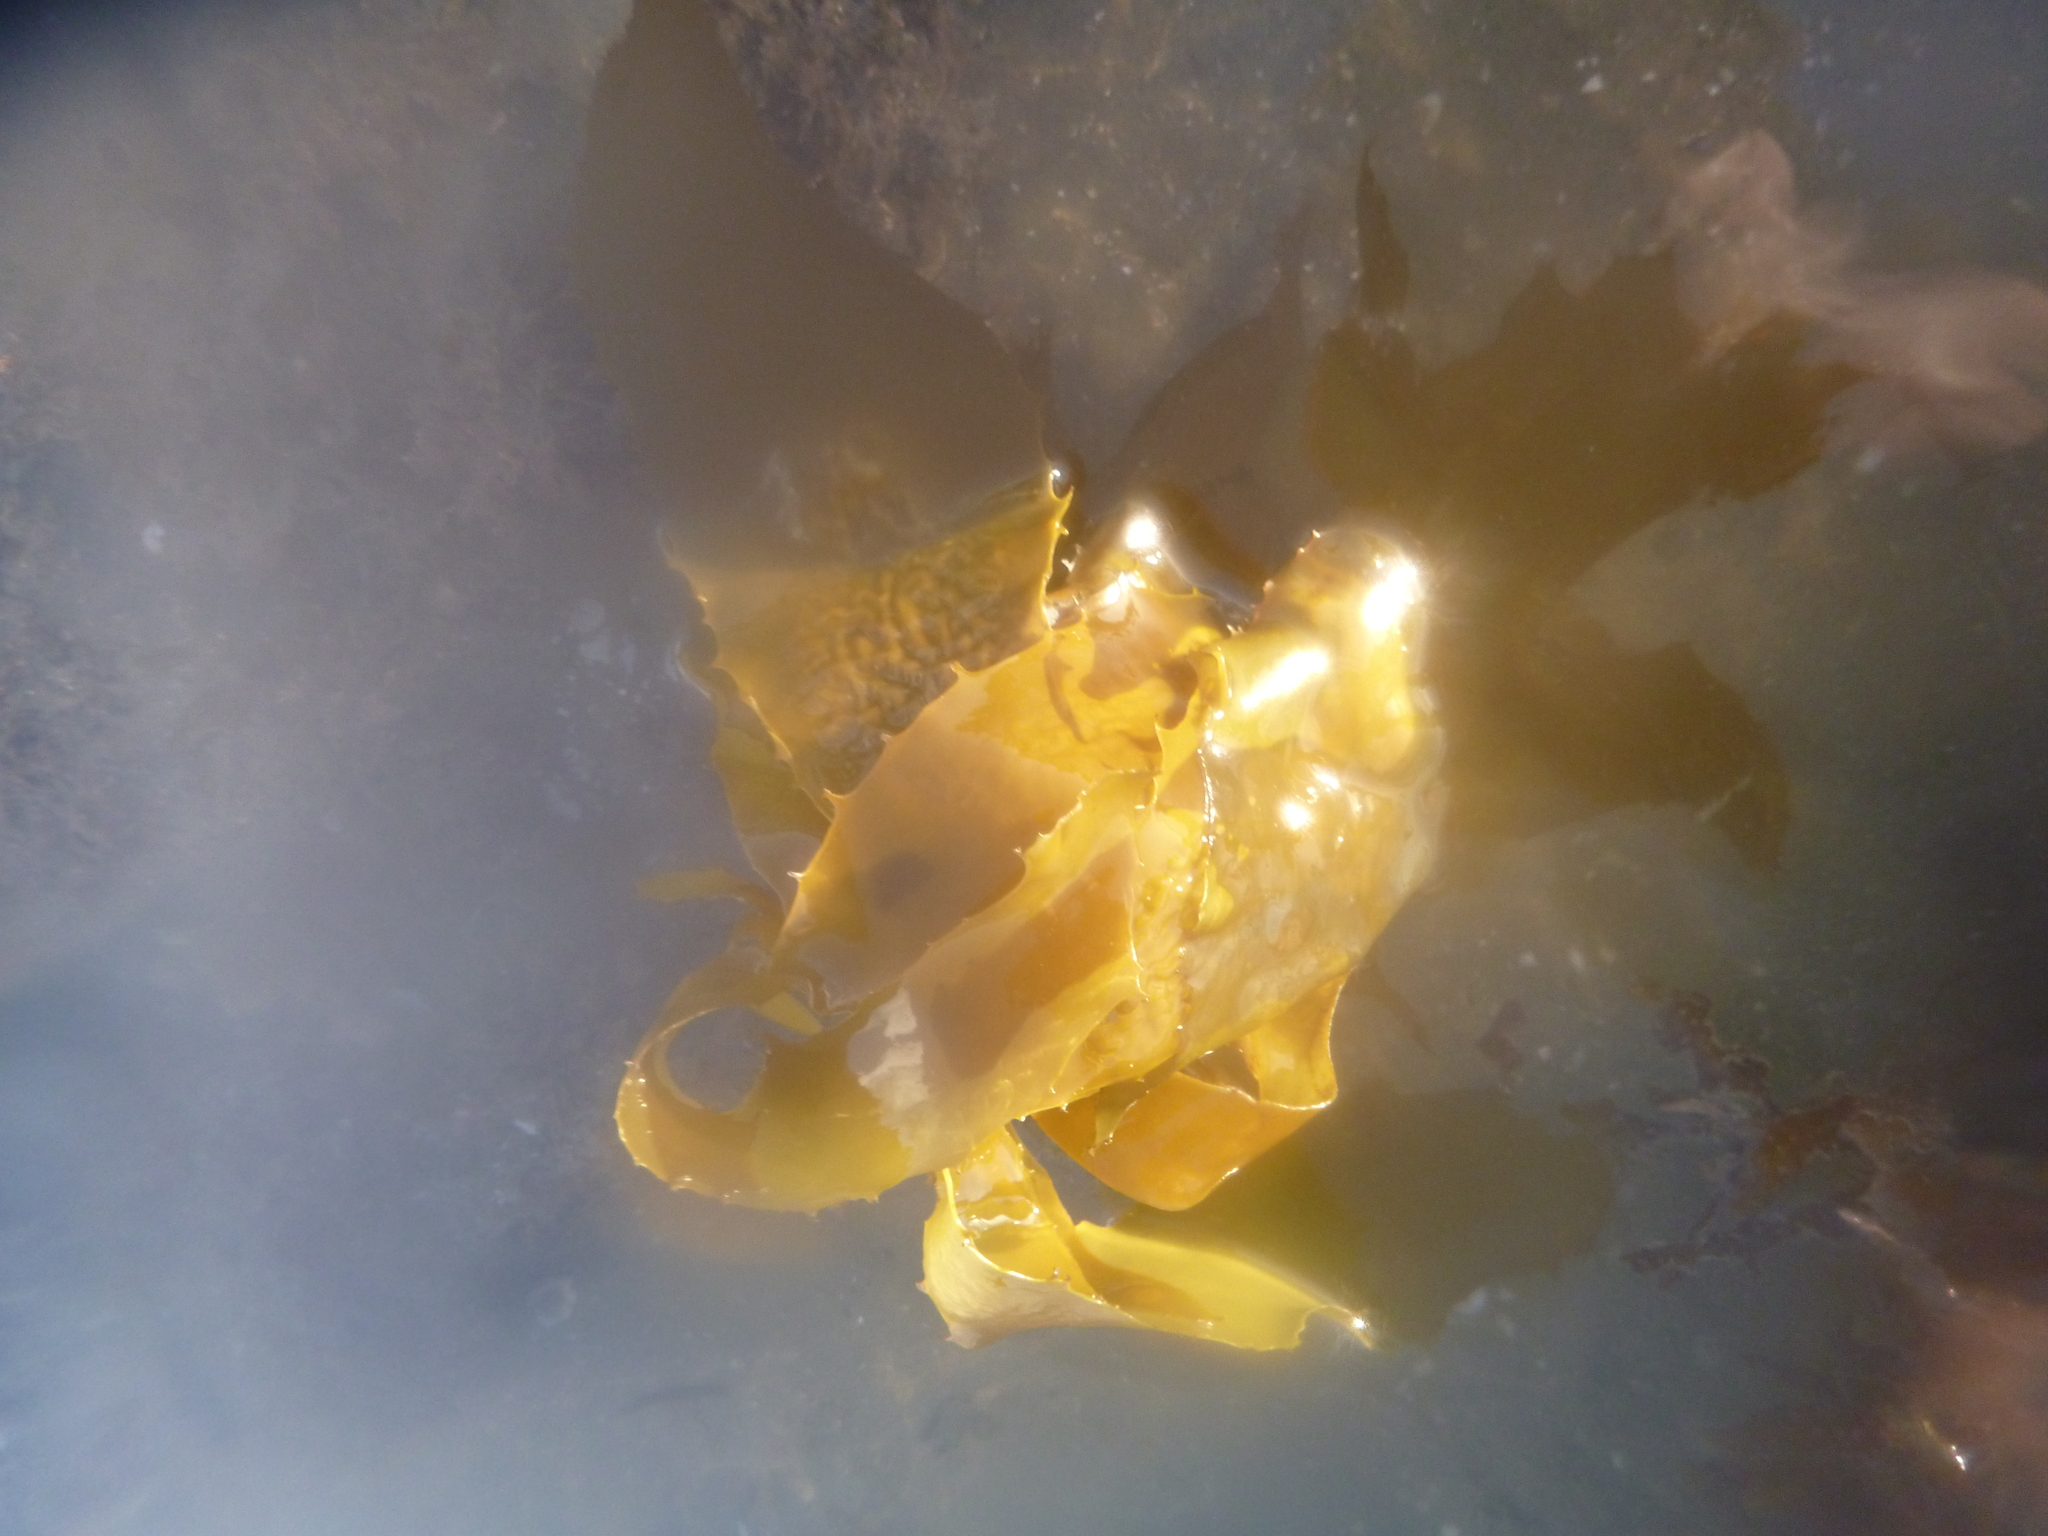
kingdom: Chromista
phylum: Ochrophyta
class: Phaeophyceae
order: Laminariales
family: Lessoniaceae
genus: Ecklonia
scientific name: Ecklonia radiata
